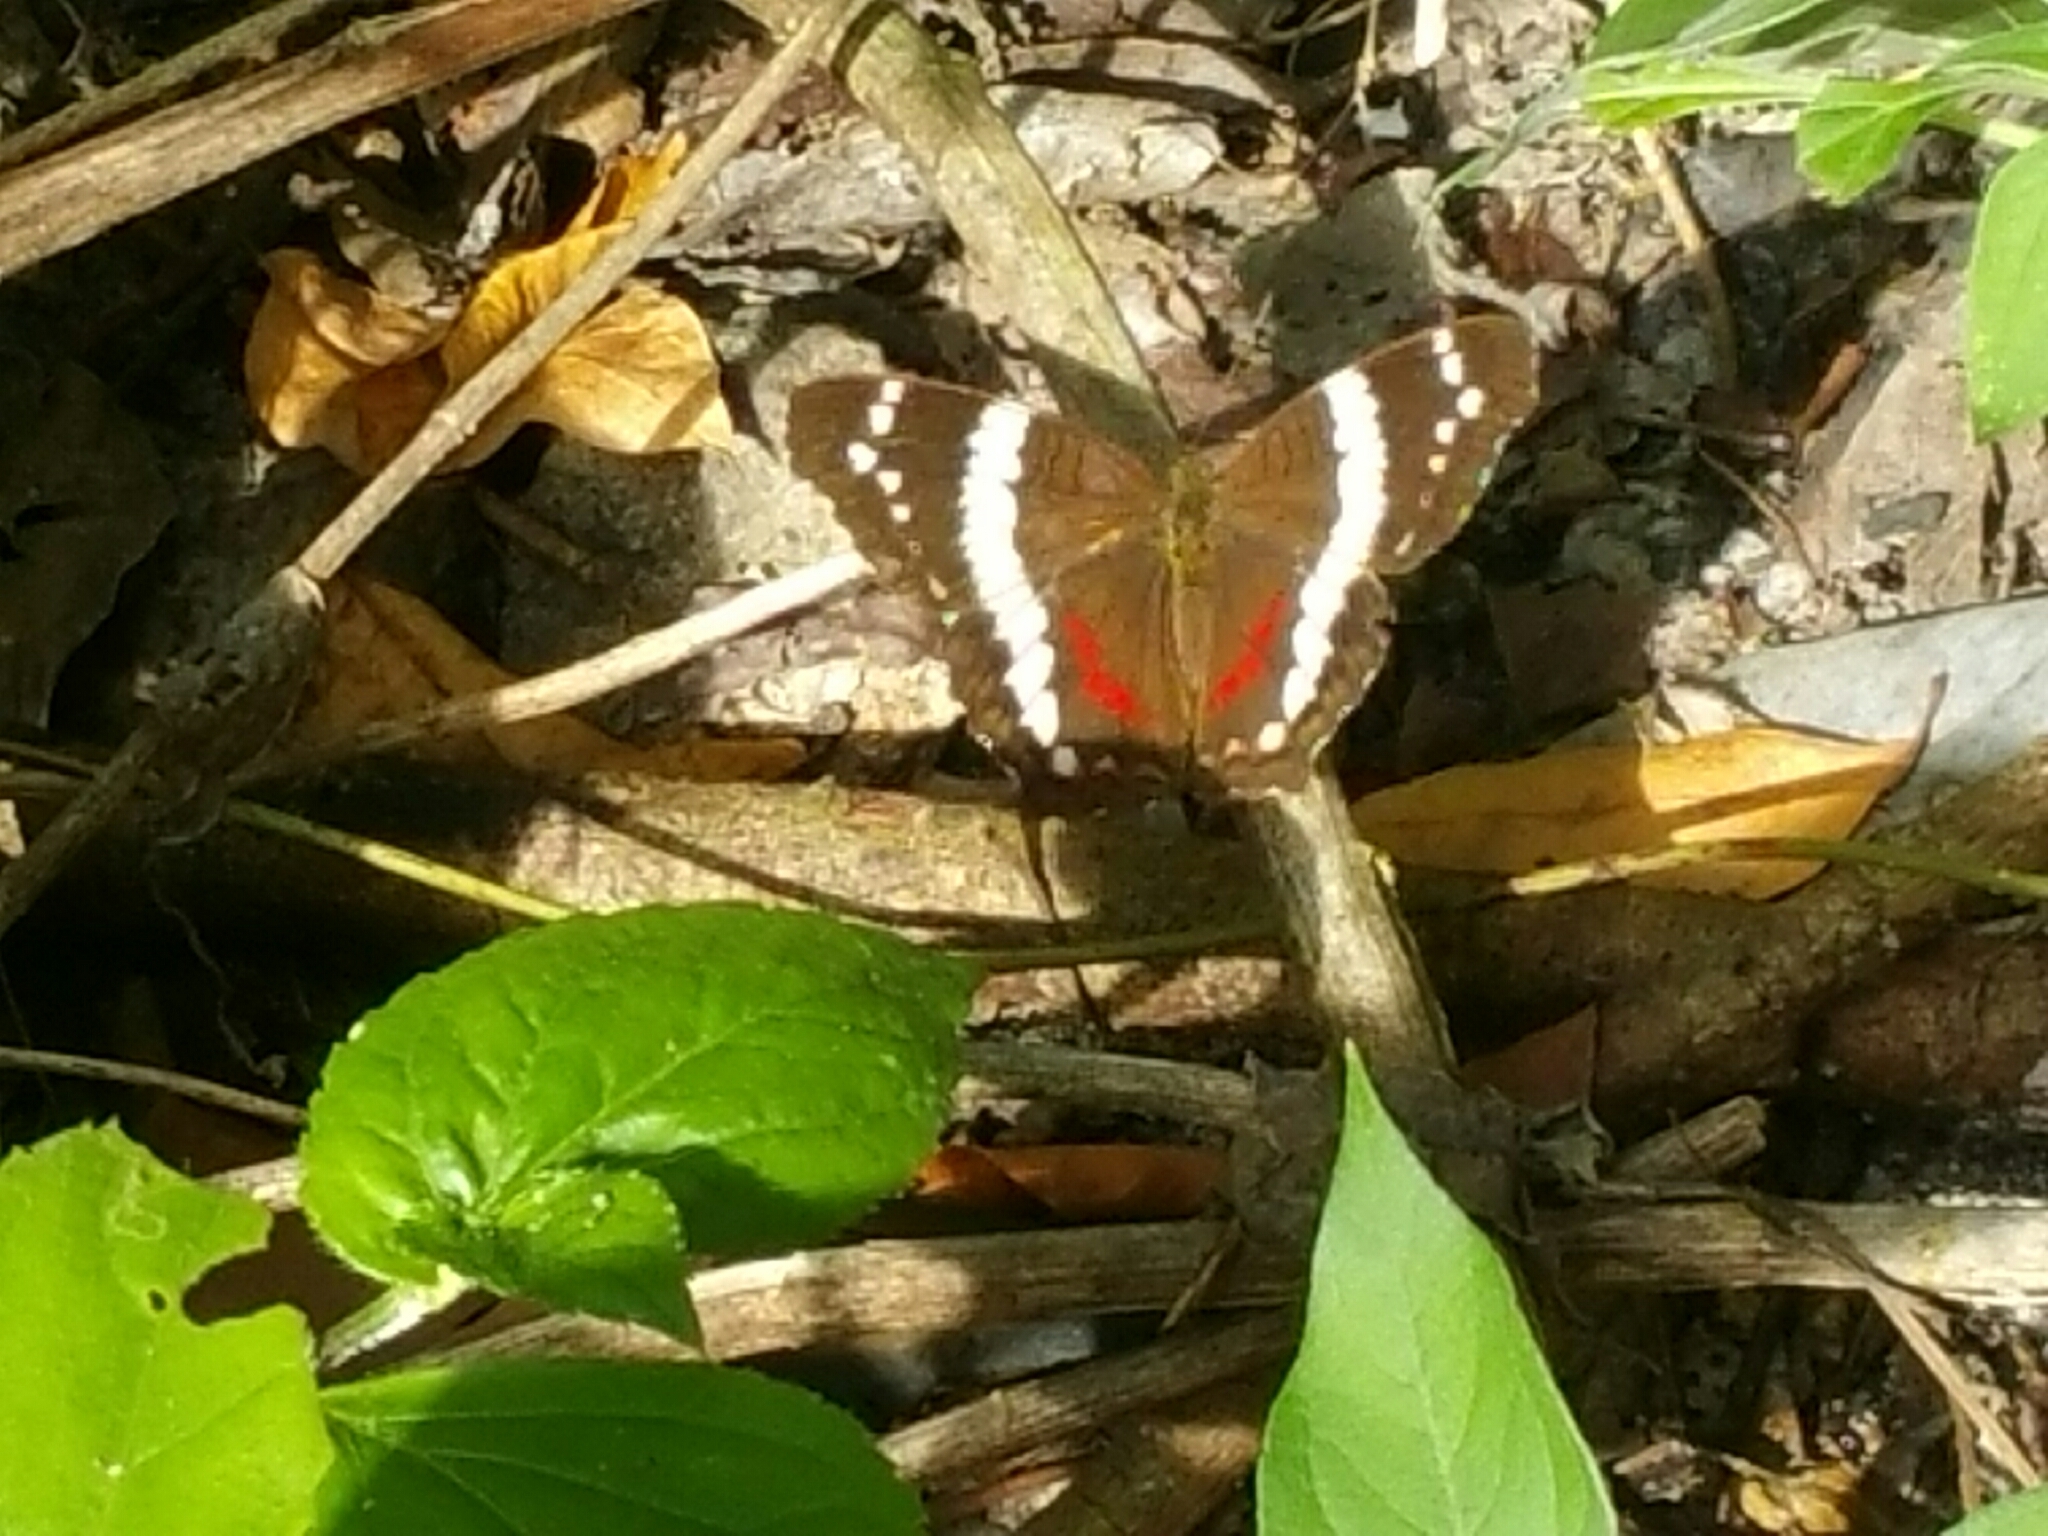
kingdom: Animalia
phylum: Arthropoda
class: Insecta
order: Lepidoptera
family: Nymphalidae
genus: Anartia
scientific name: Anartia fatima
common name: Banded peacock
